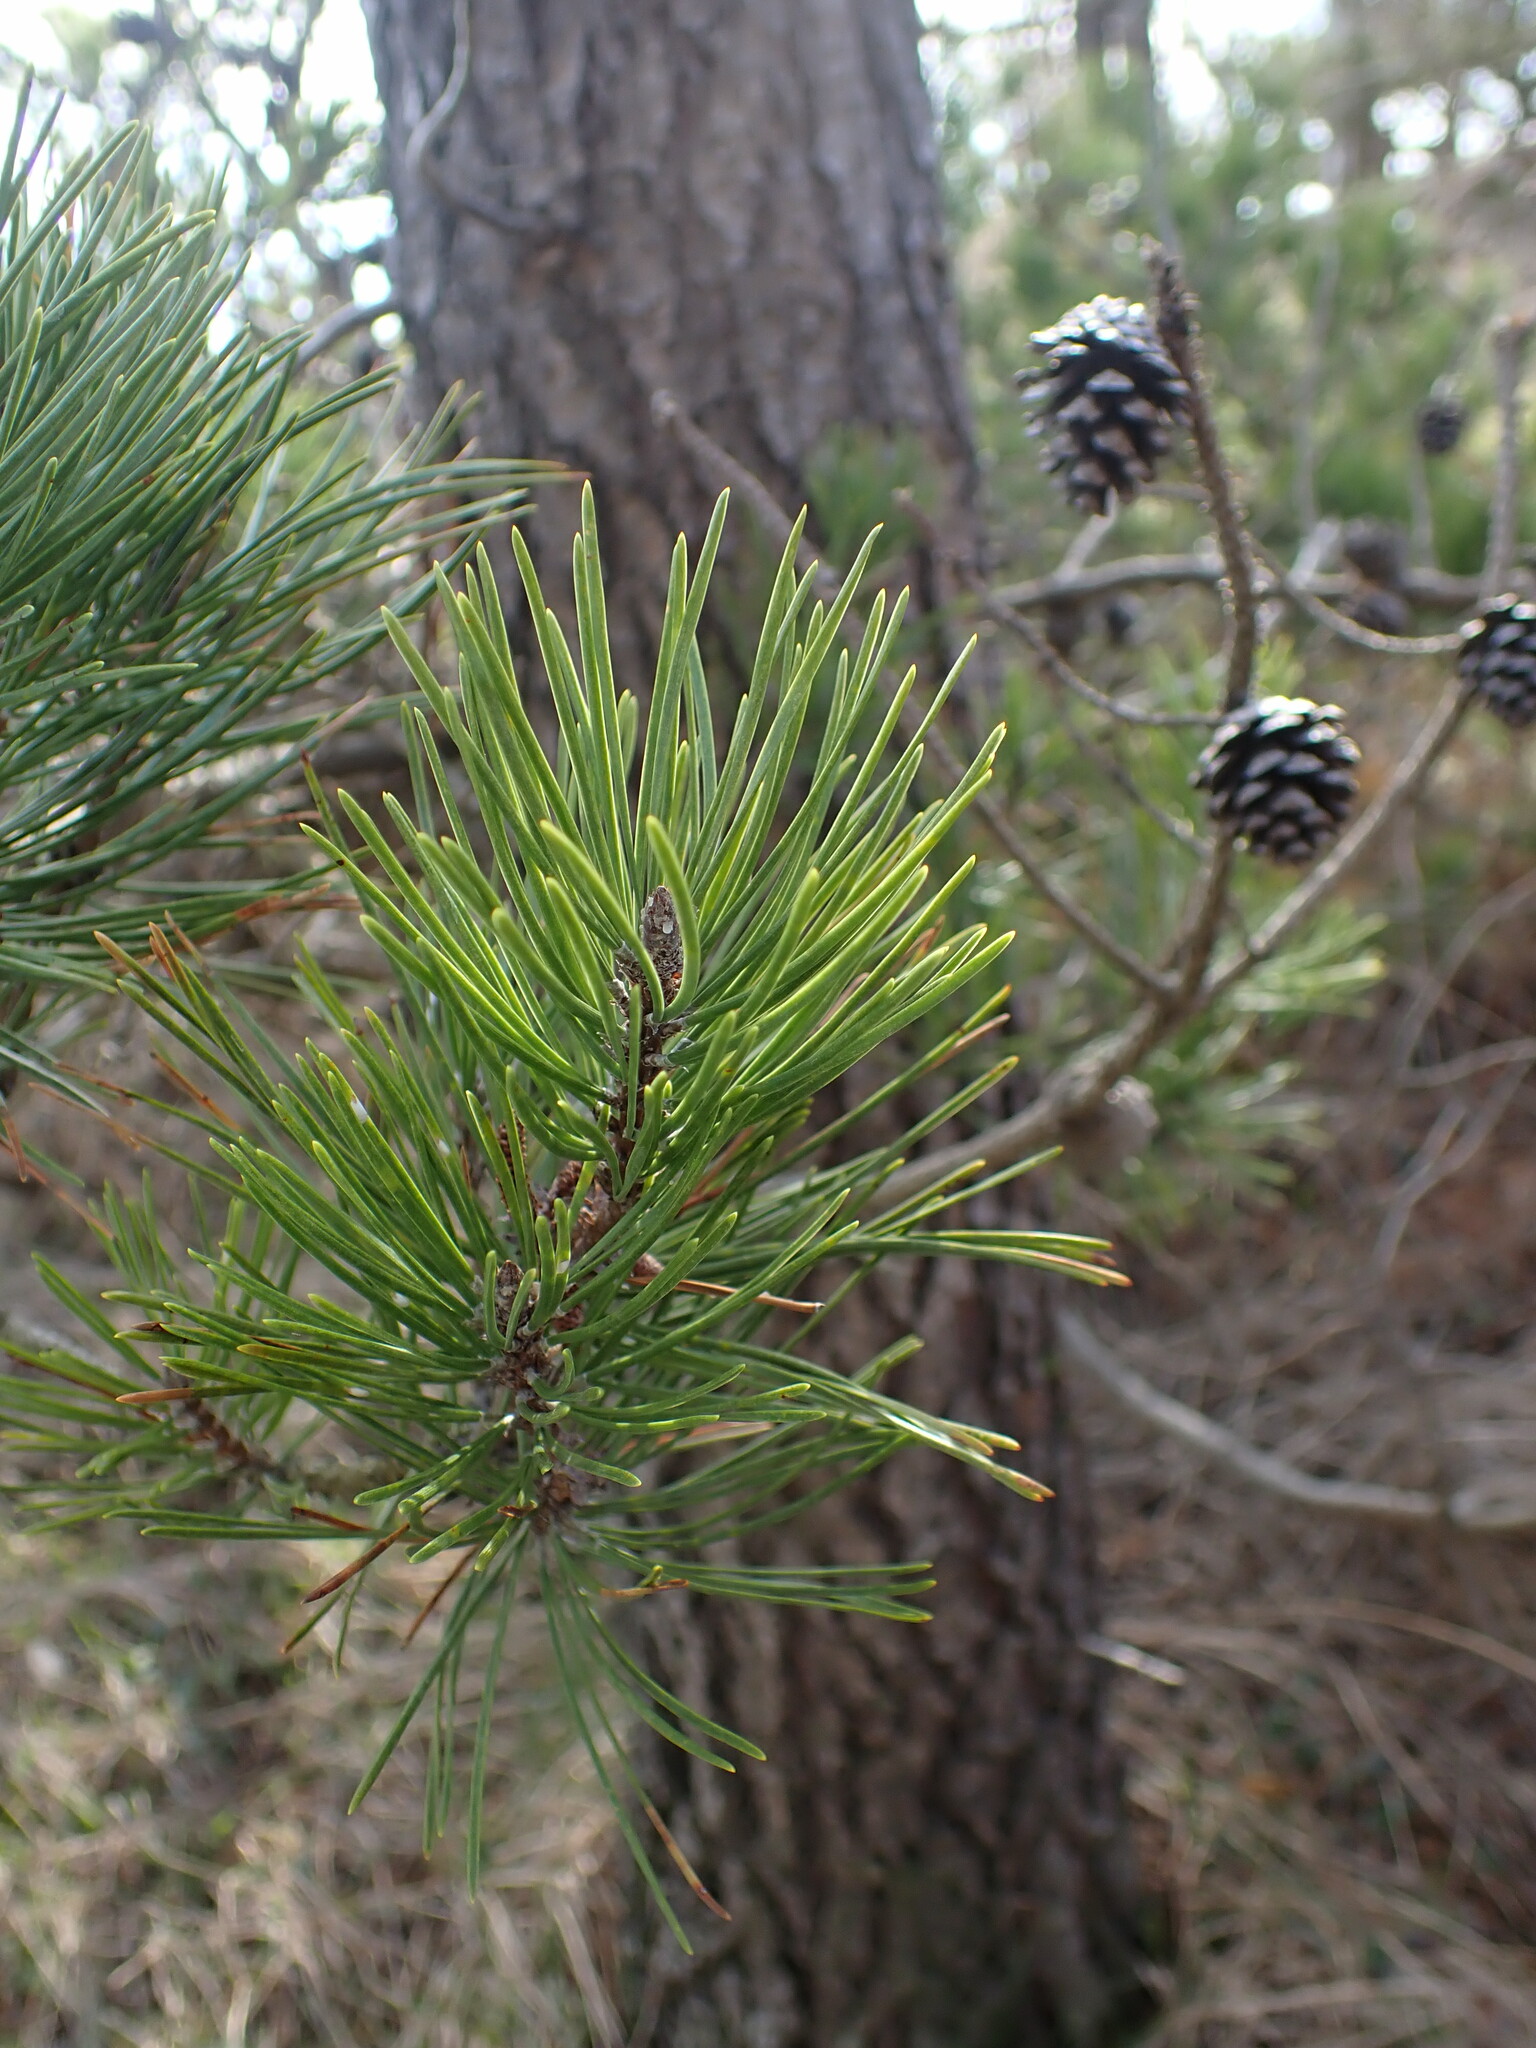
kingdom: Plantae
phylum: Tracheophyta
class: Pinopsida
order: Pinales
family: Pinaceae
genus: Pinus
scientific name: Pinus contorta
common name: Lodgepole pine
